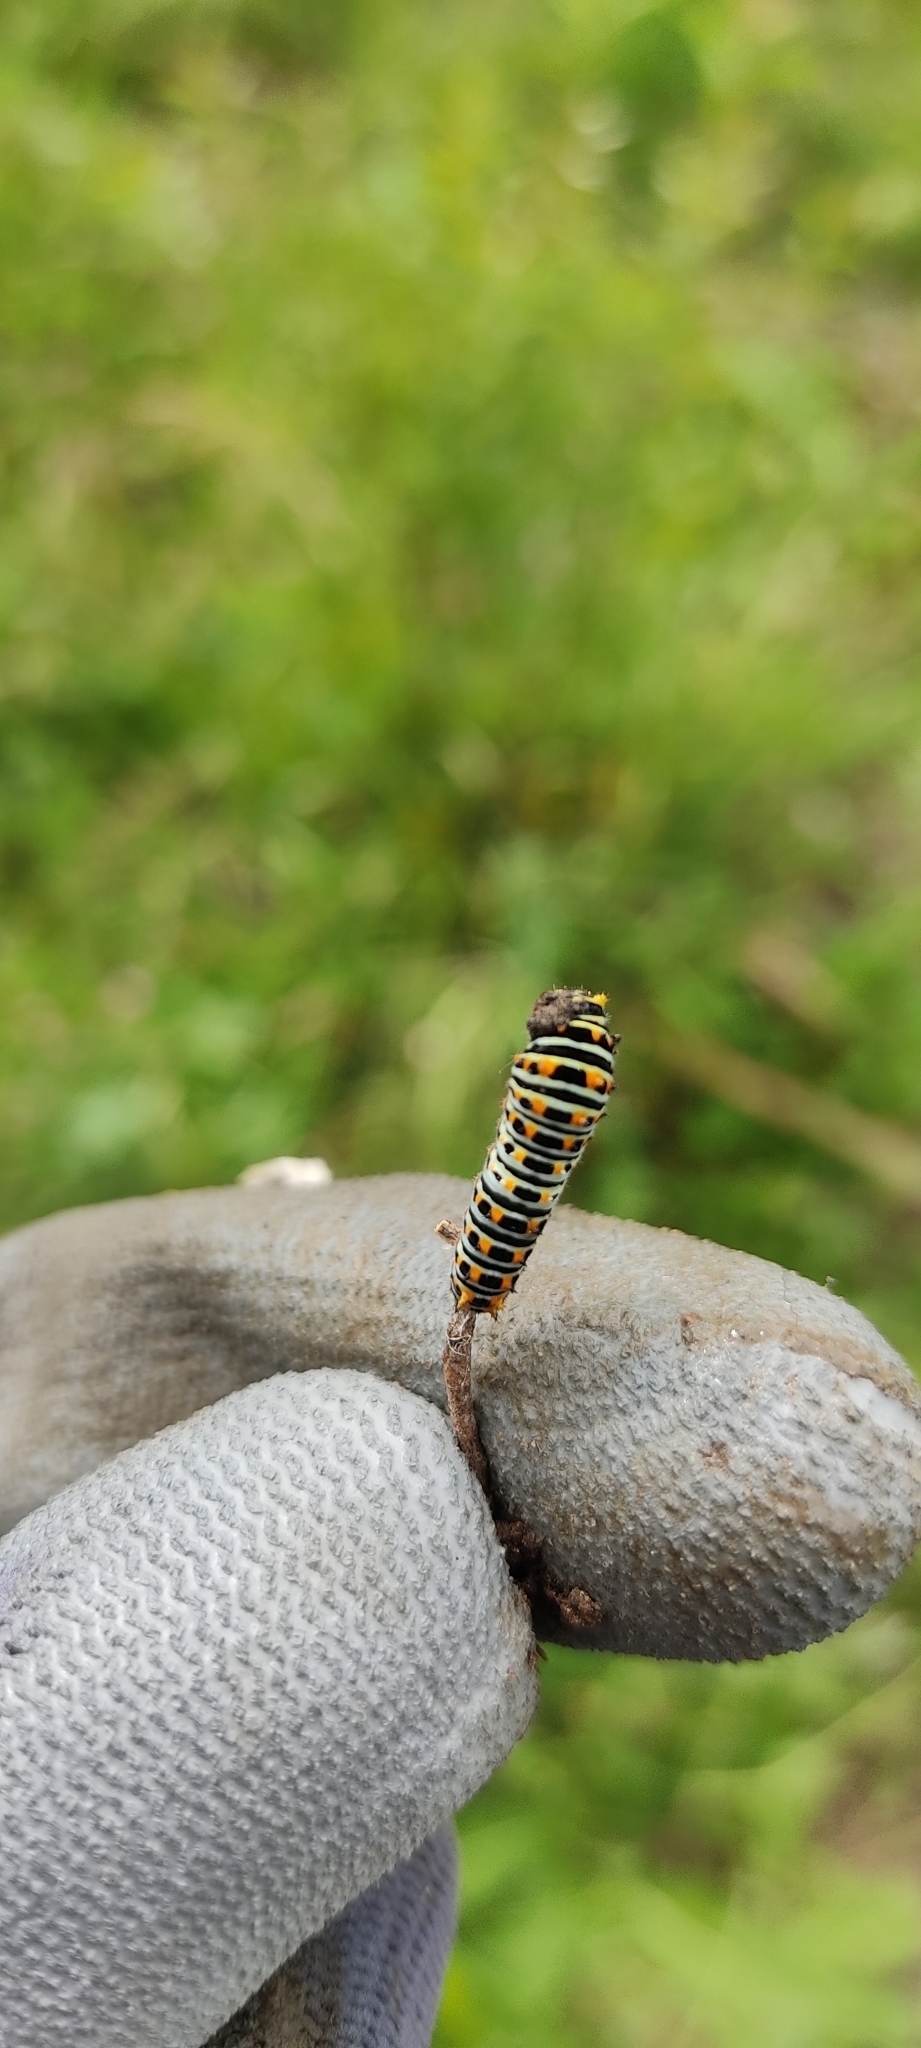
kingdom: Animalia
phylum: Arthropoda
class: Insecta
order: Lepidoptera
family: Papilionidae
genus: Papilio
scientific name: Papilio machaon
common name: Swallowtail
